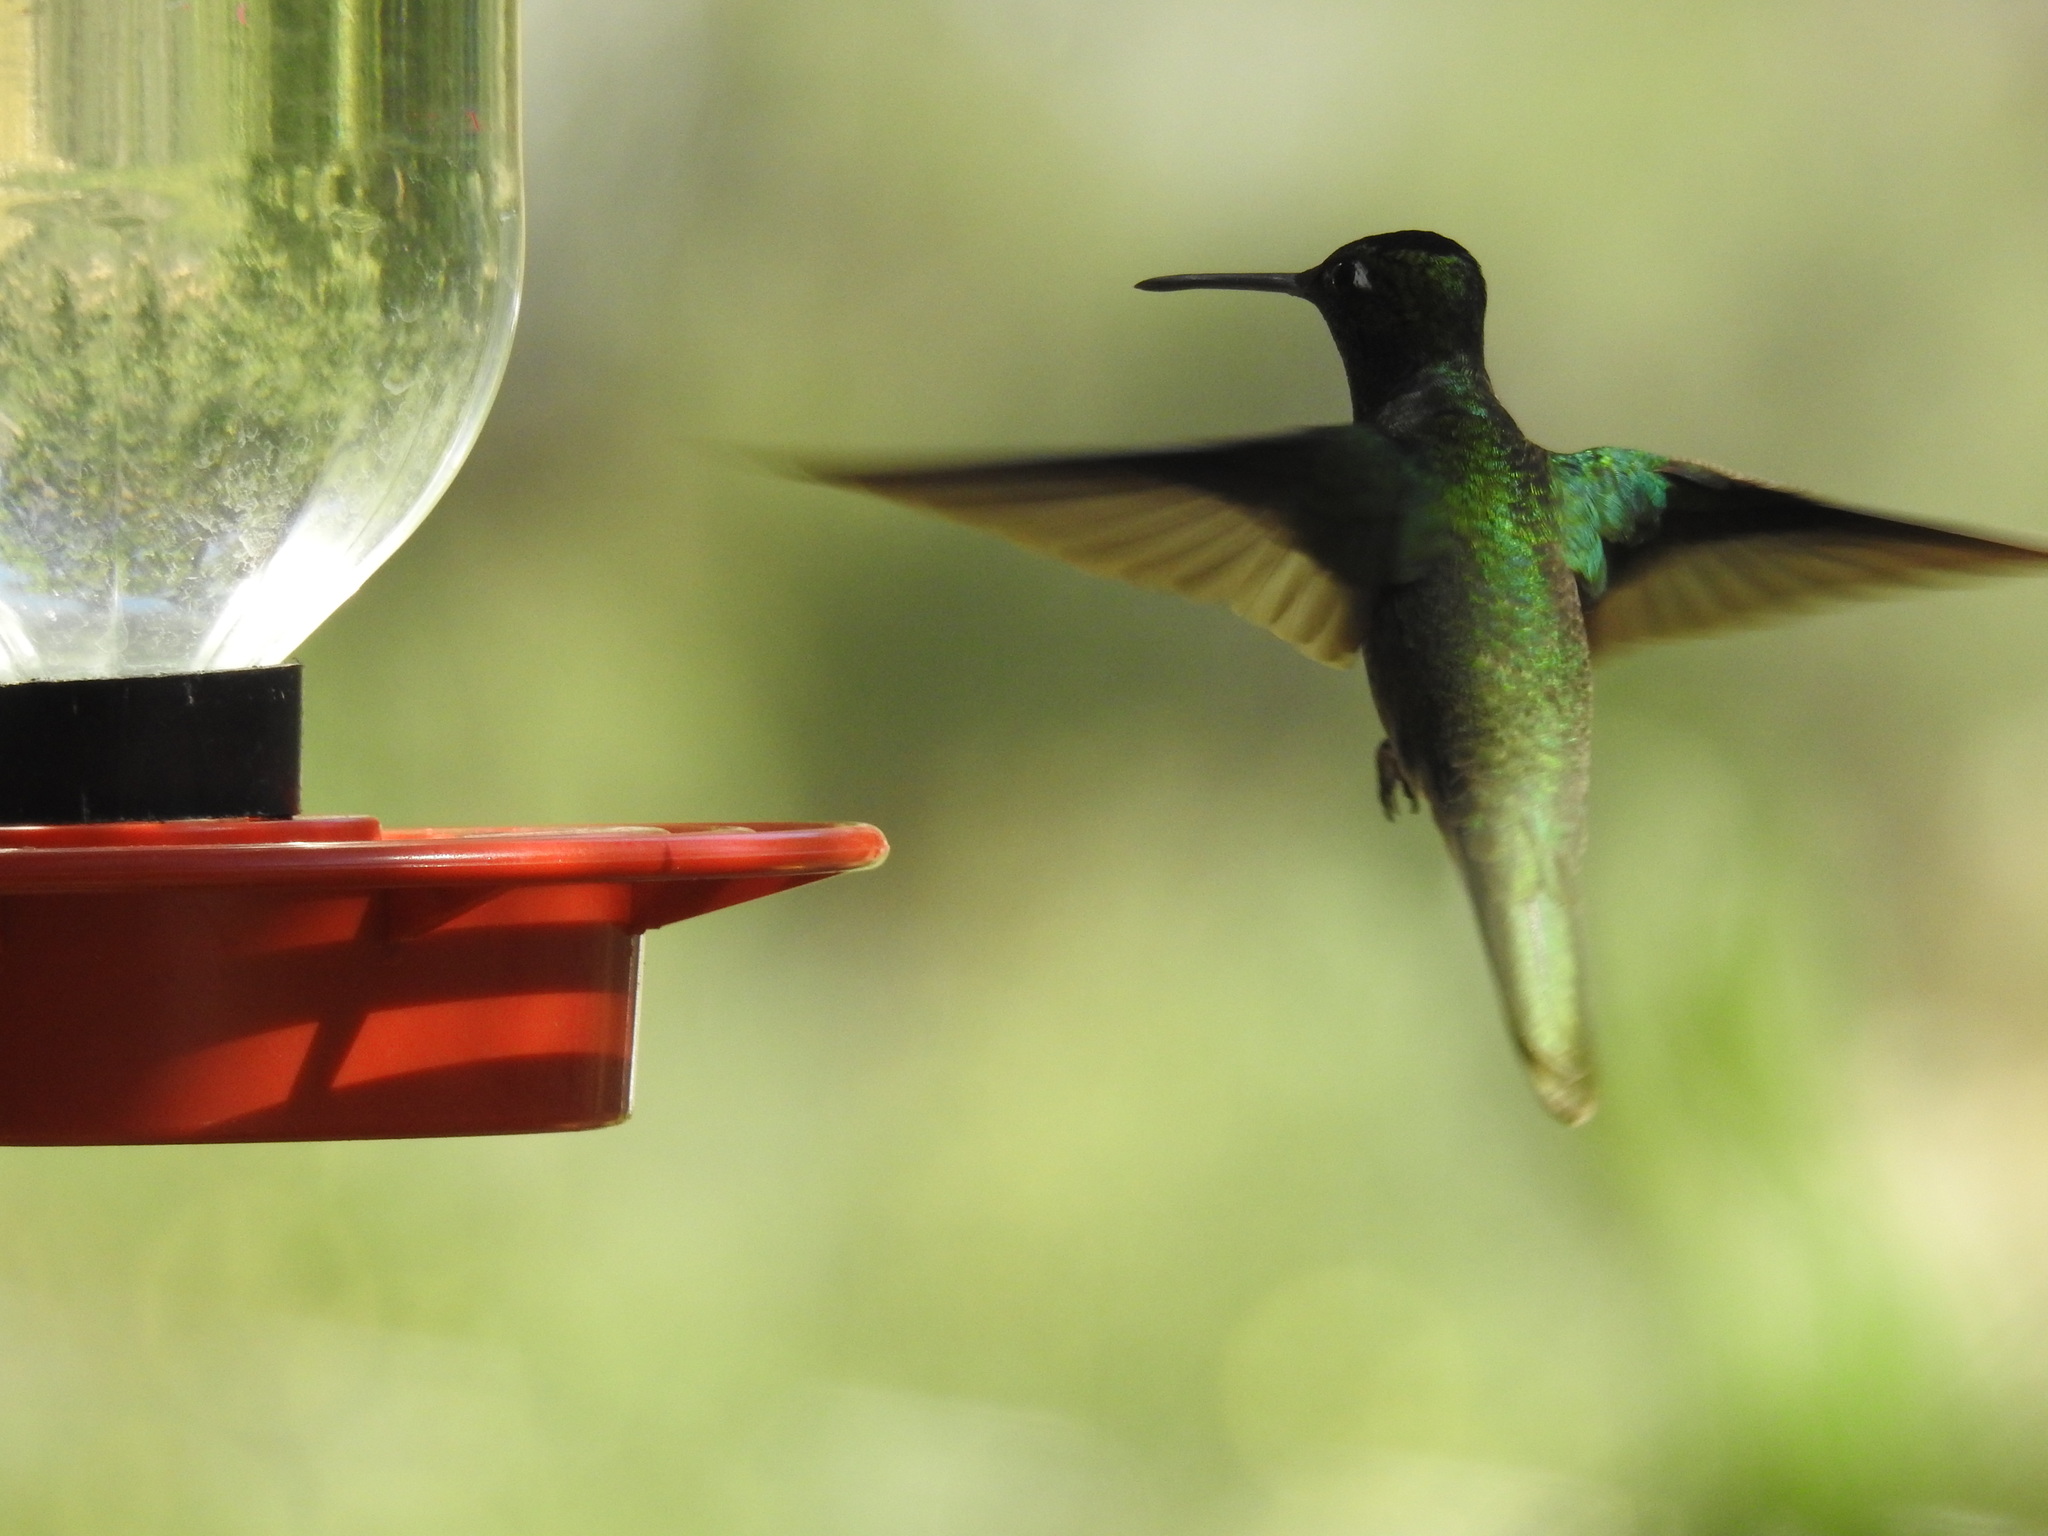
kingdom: Animalia
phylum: Chordata
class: Aves
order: Apodiformes
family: Trochilidae
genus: Eugenes
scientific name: Eugenes fulgens
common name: Magnificent hummingbird
